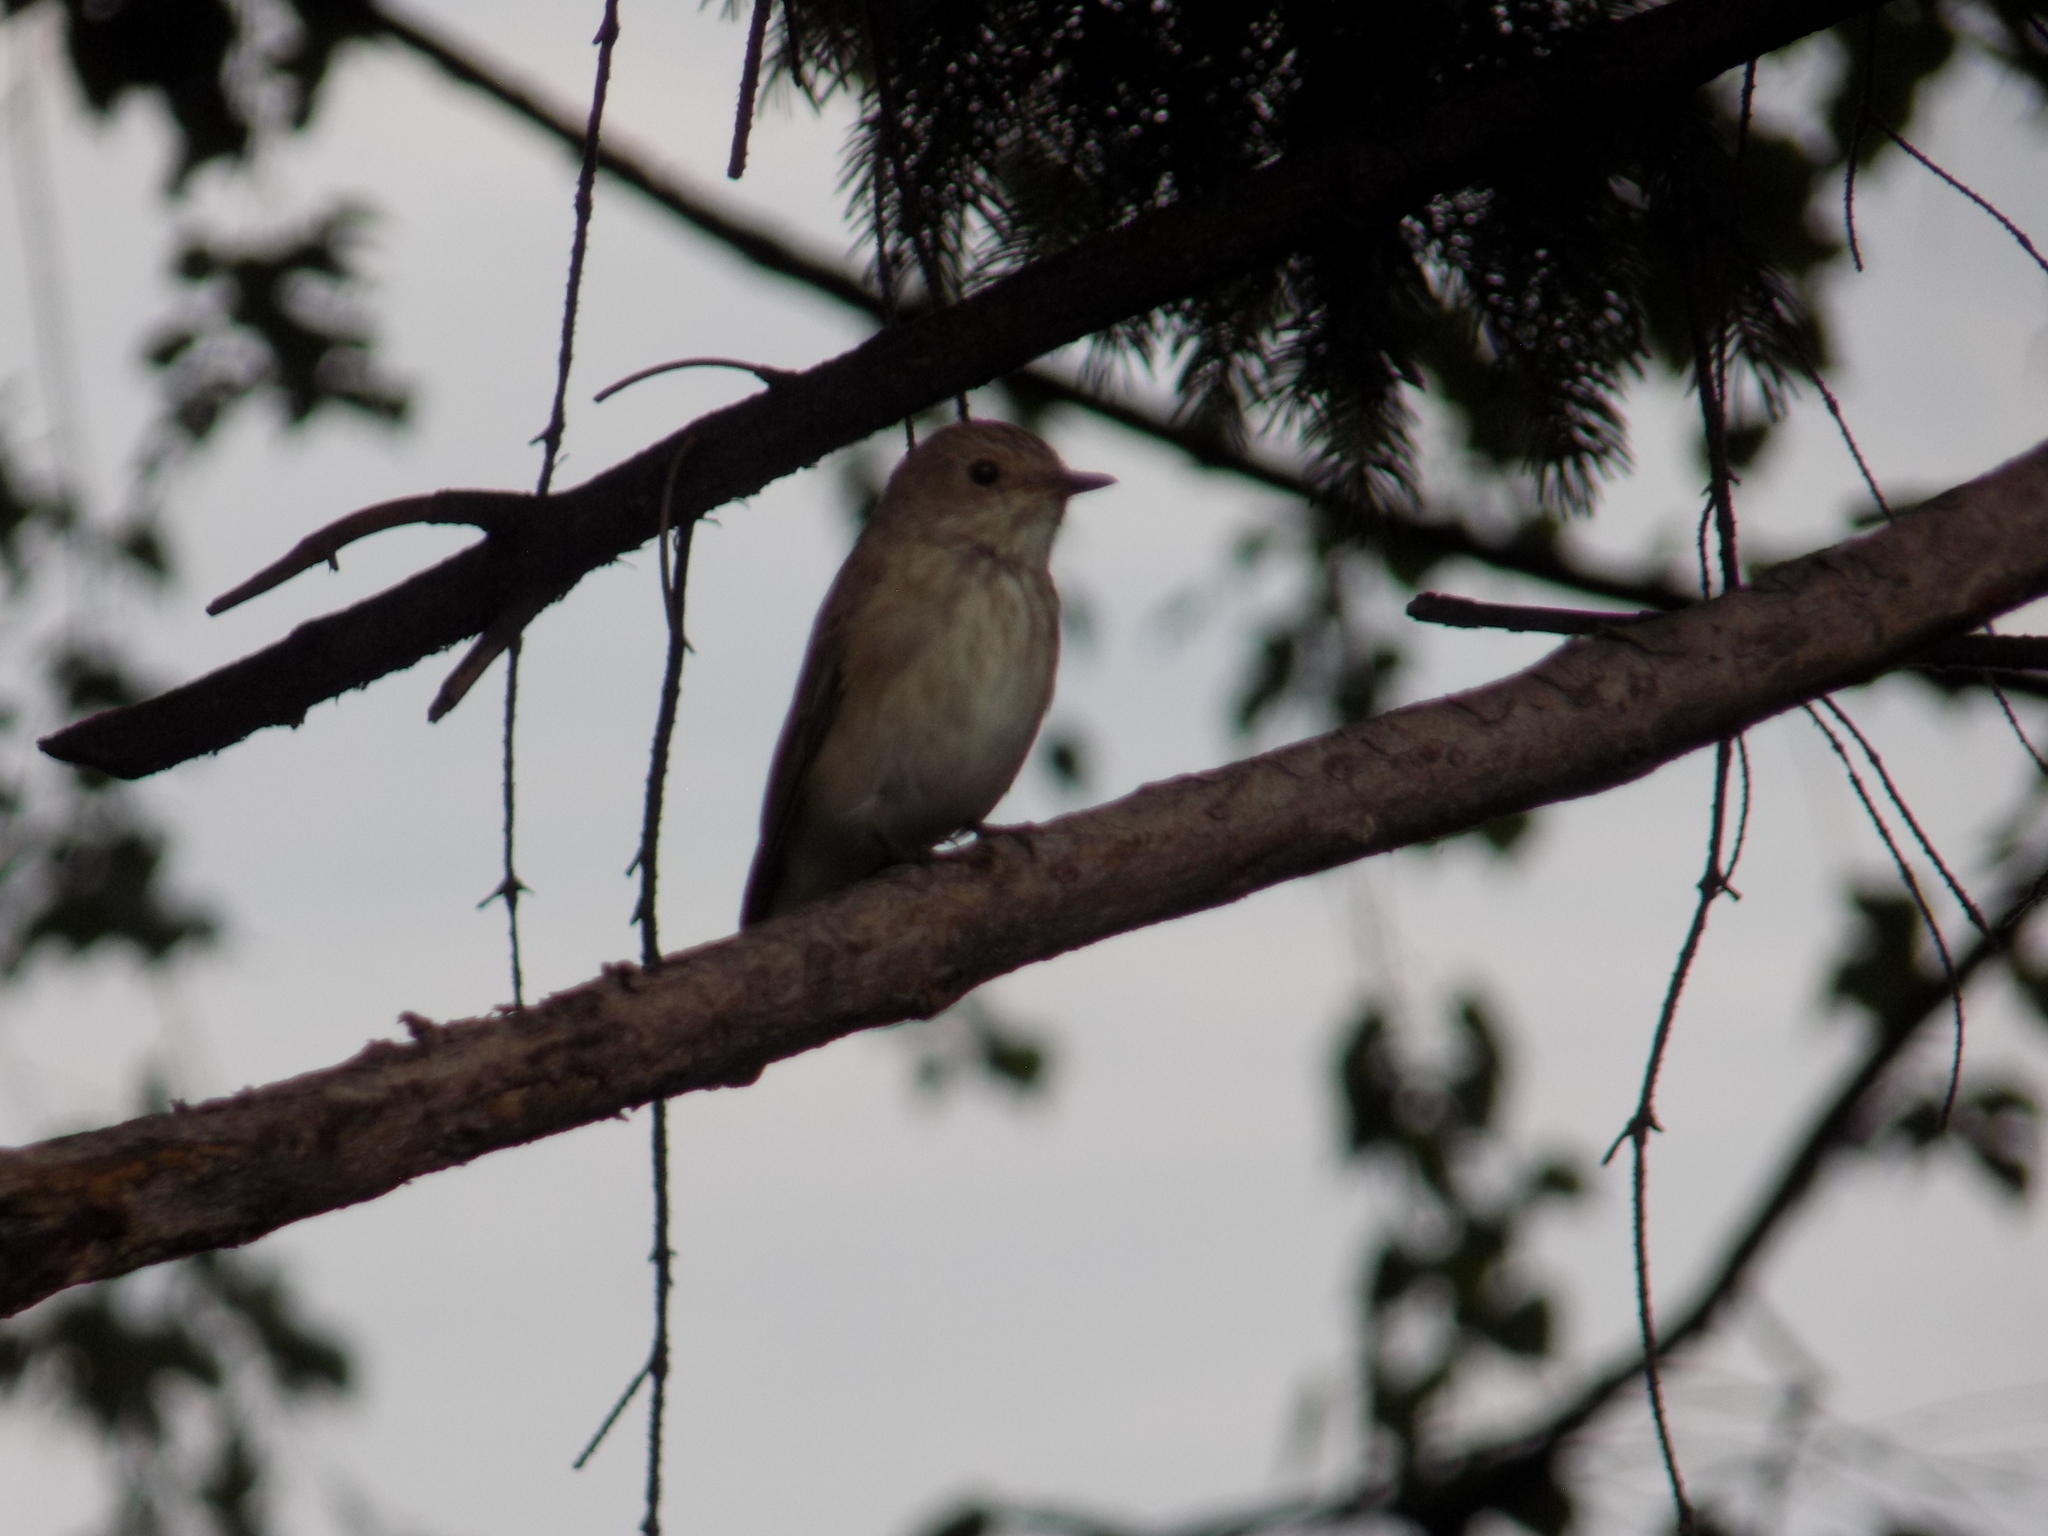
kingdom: Animalia
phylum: Chordata
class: Aves
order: Passeriformes
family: Muscicapidae
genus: Muscicapa
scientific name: Muscicapa striata
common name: Spotted flycatcher
